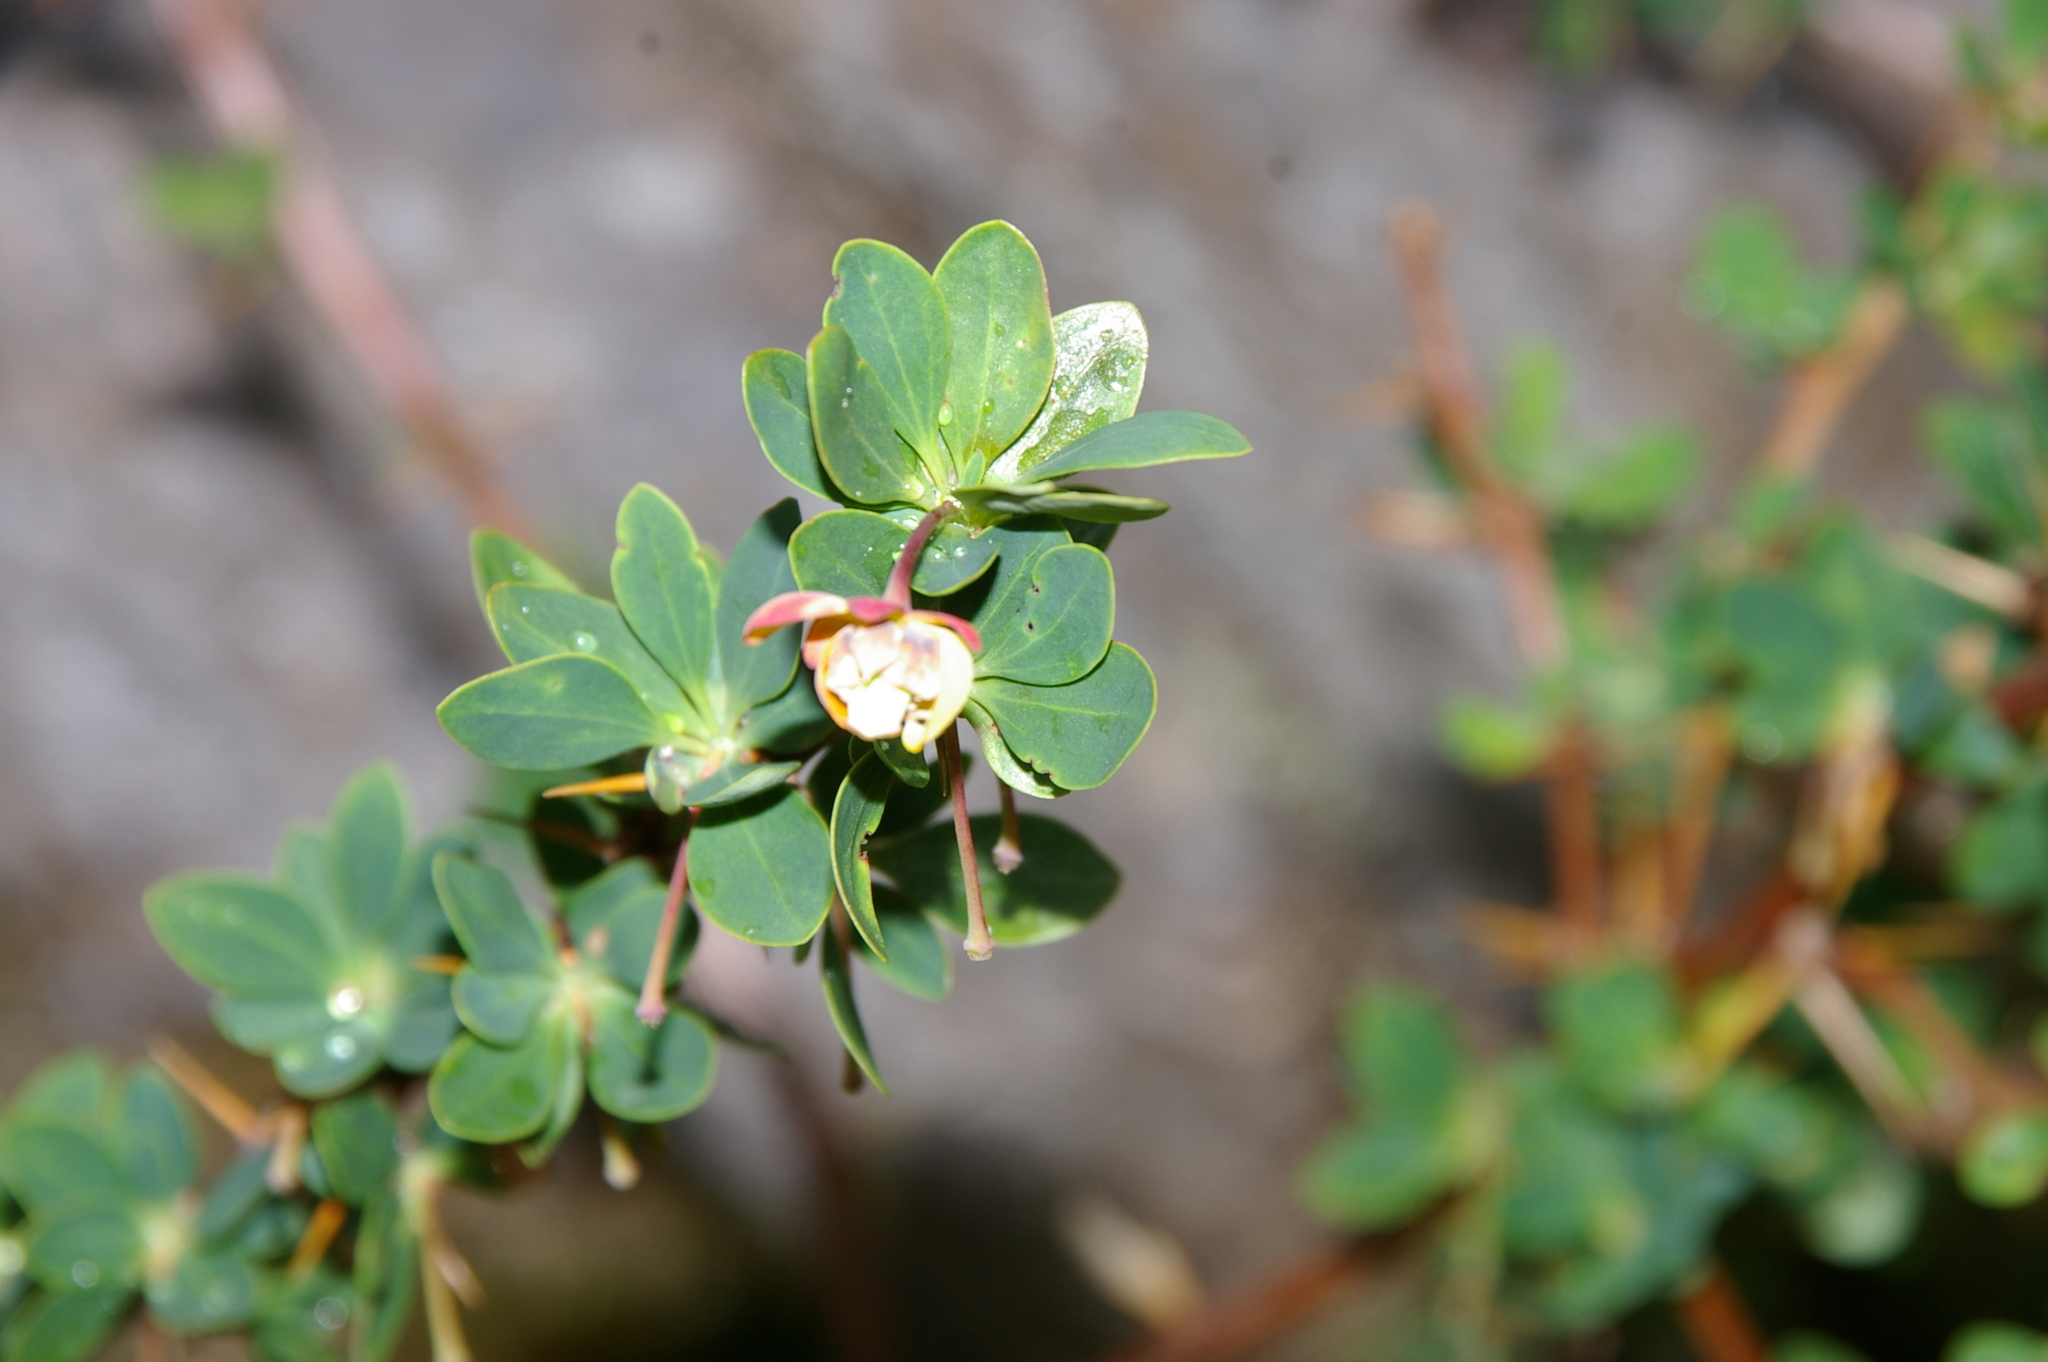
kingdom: Plantae
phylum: Tracheophyta
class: Magnoliopsida
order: Ranunculales
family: Berberidaceae
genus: Berberis
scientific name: Berberis microphylla
